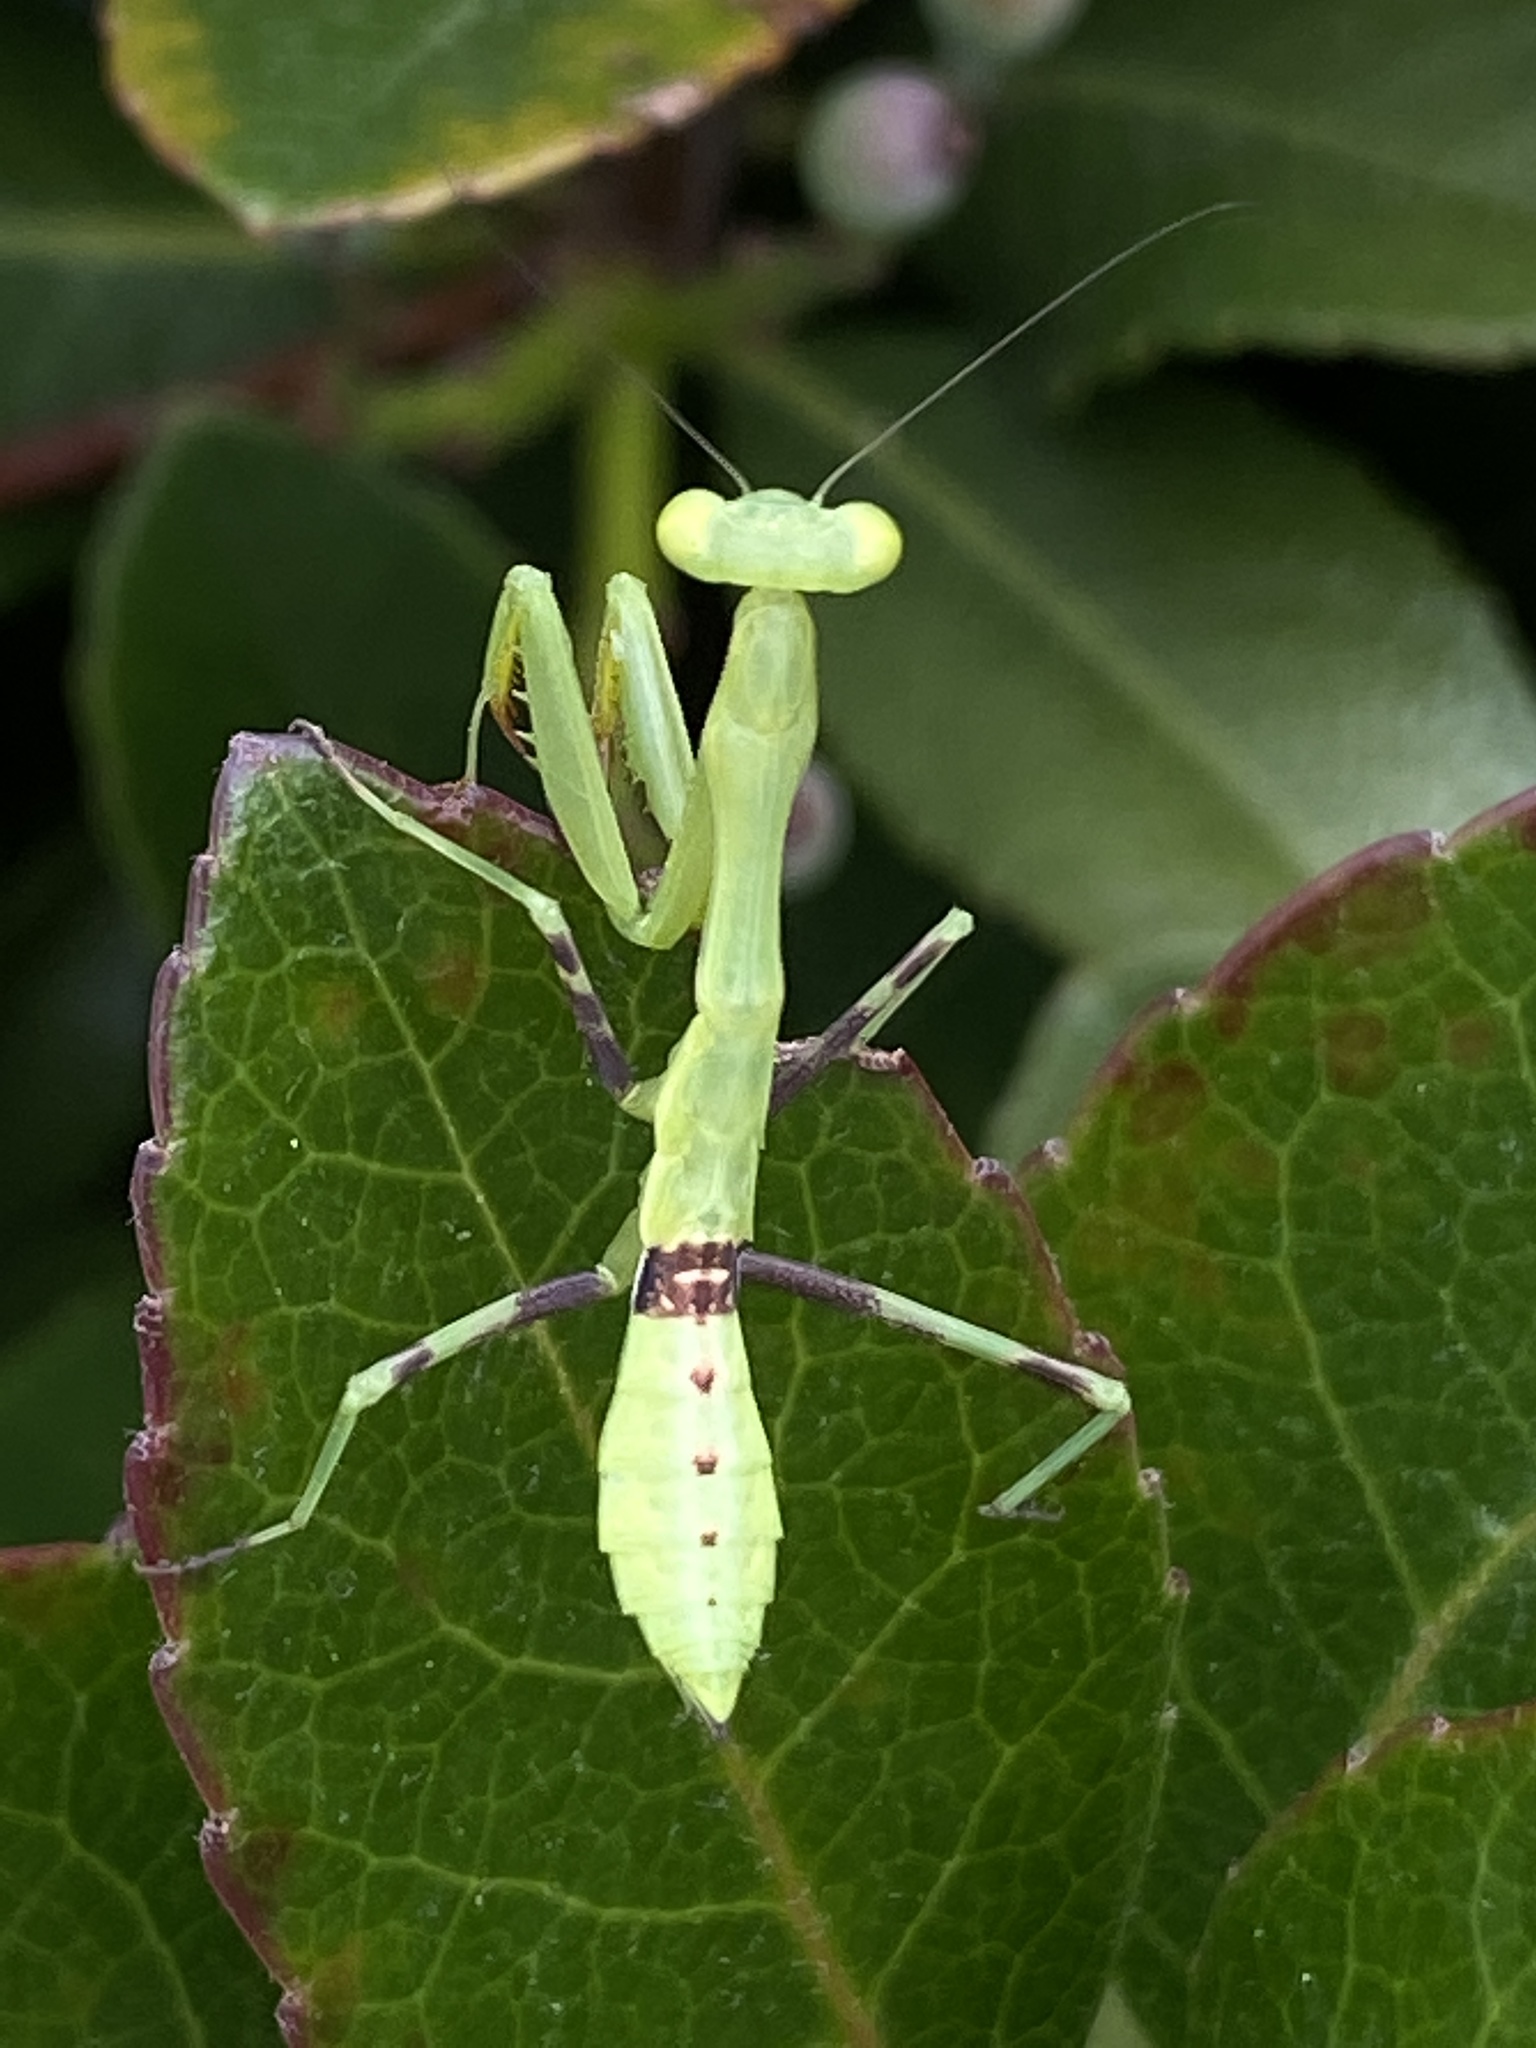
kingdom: Animalia
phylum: Arthropoda
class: Insecta
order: Mantodea
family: Miomantidae
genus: Miomantis
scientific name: Miomantis caffra
